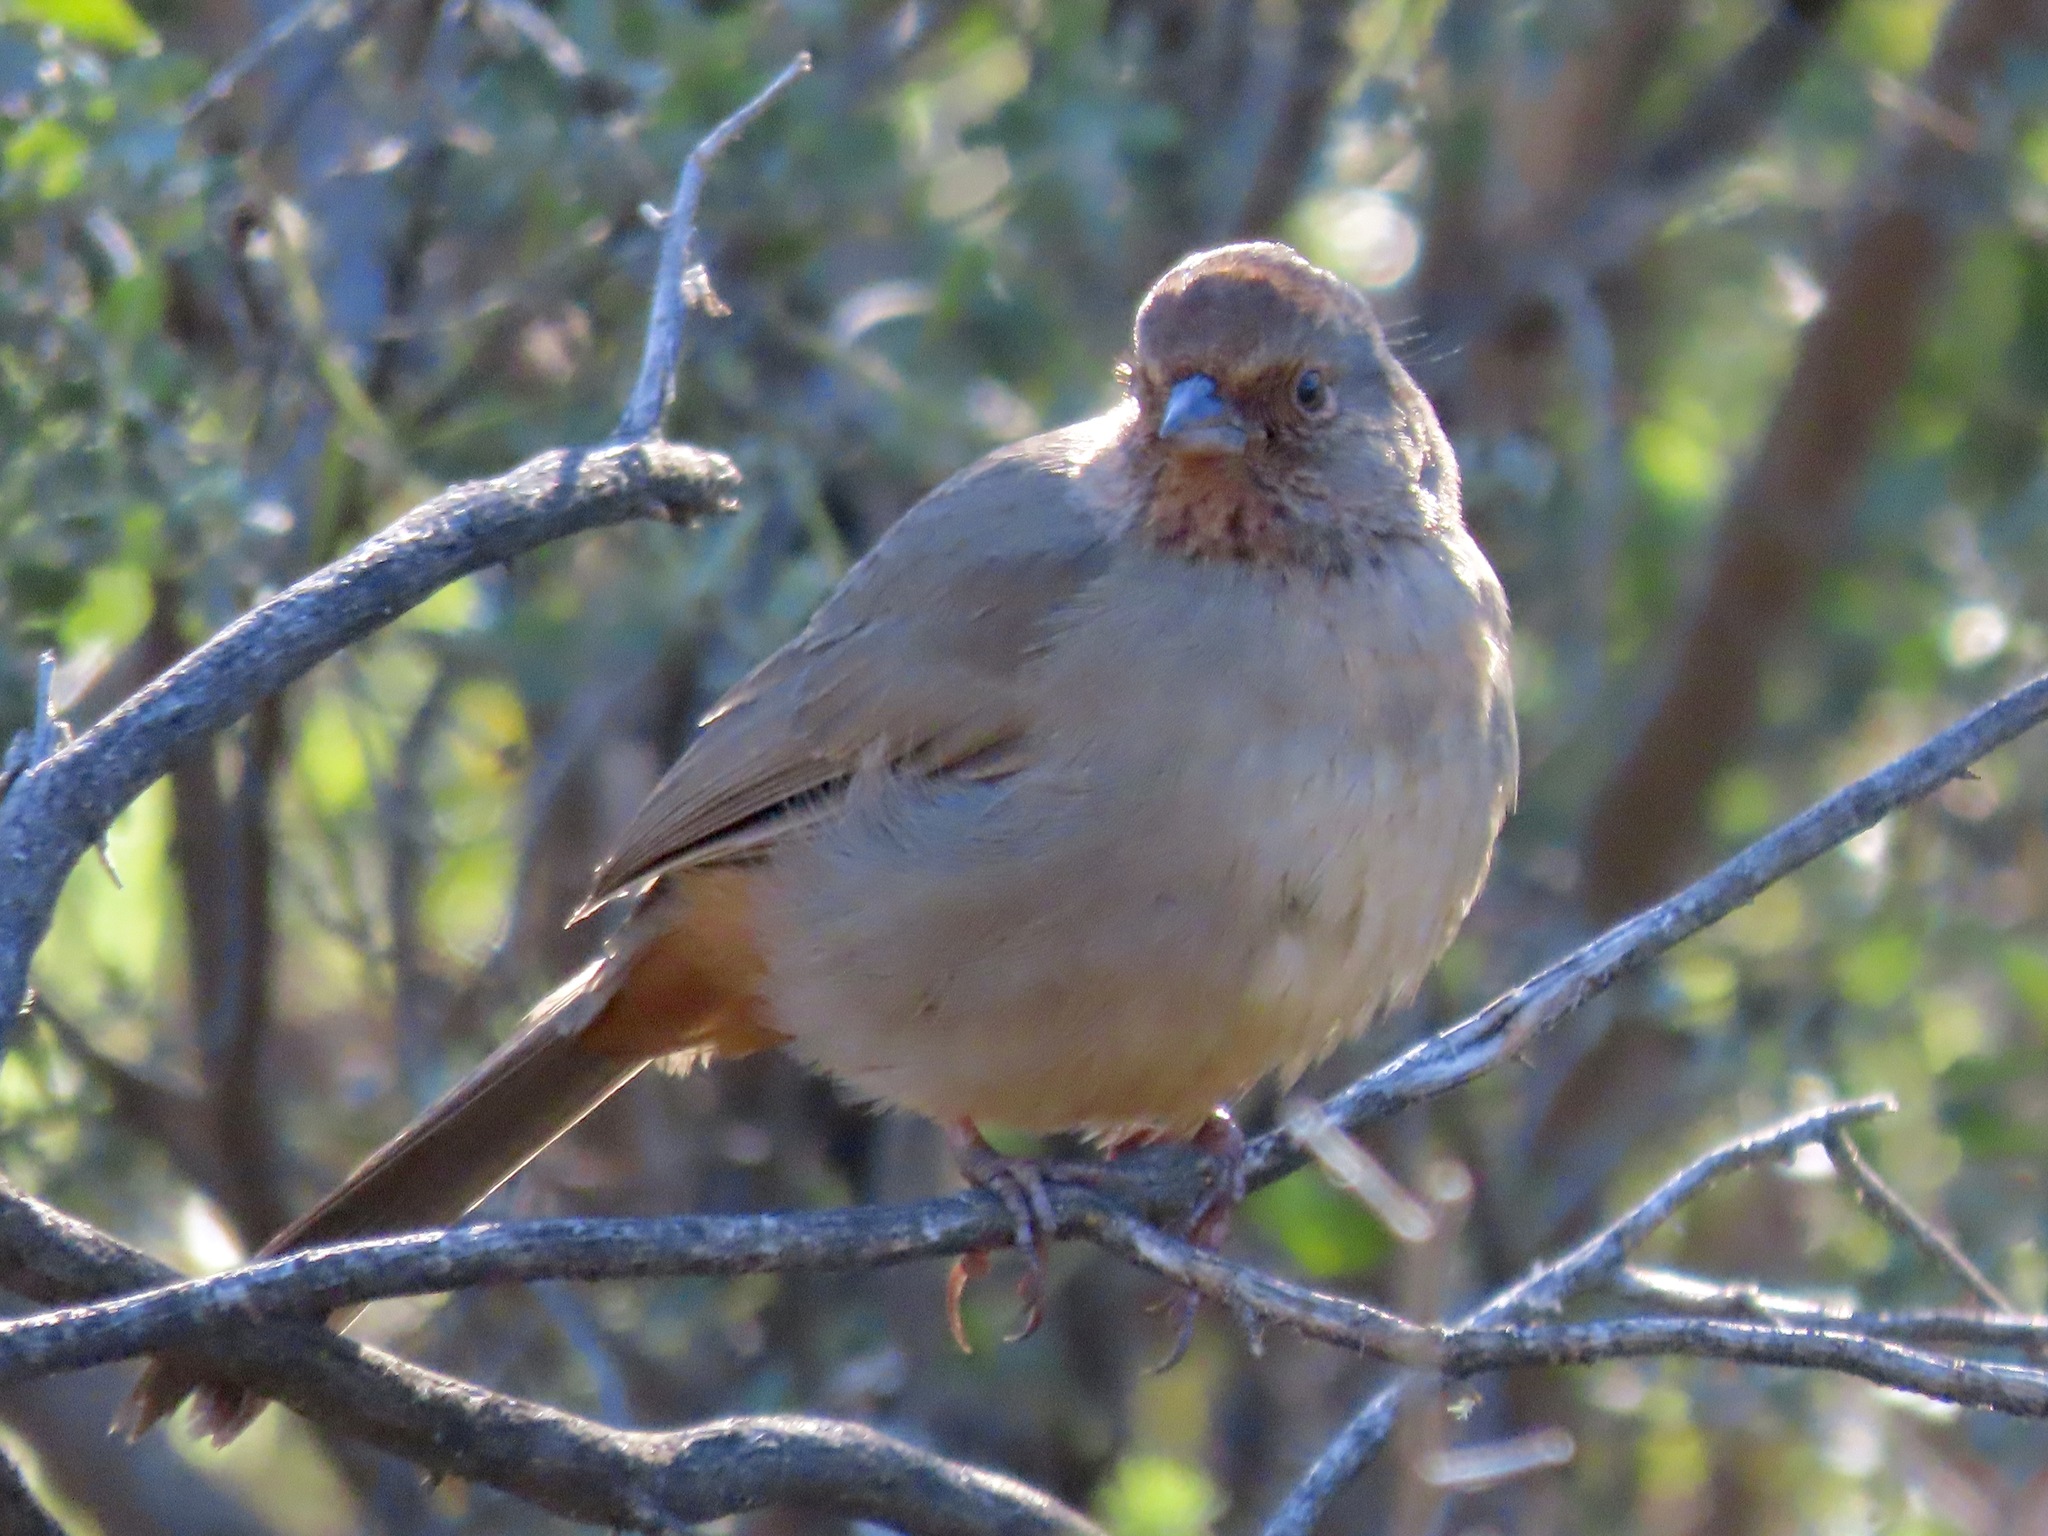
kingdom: Animalia
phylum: Chordata
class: Aves
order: Passeriformes
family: Passerellidae
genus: Melozone
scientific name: Melozone crissalis
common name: California towhee
